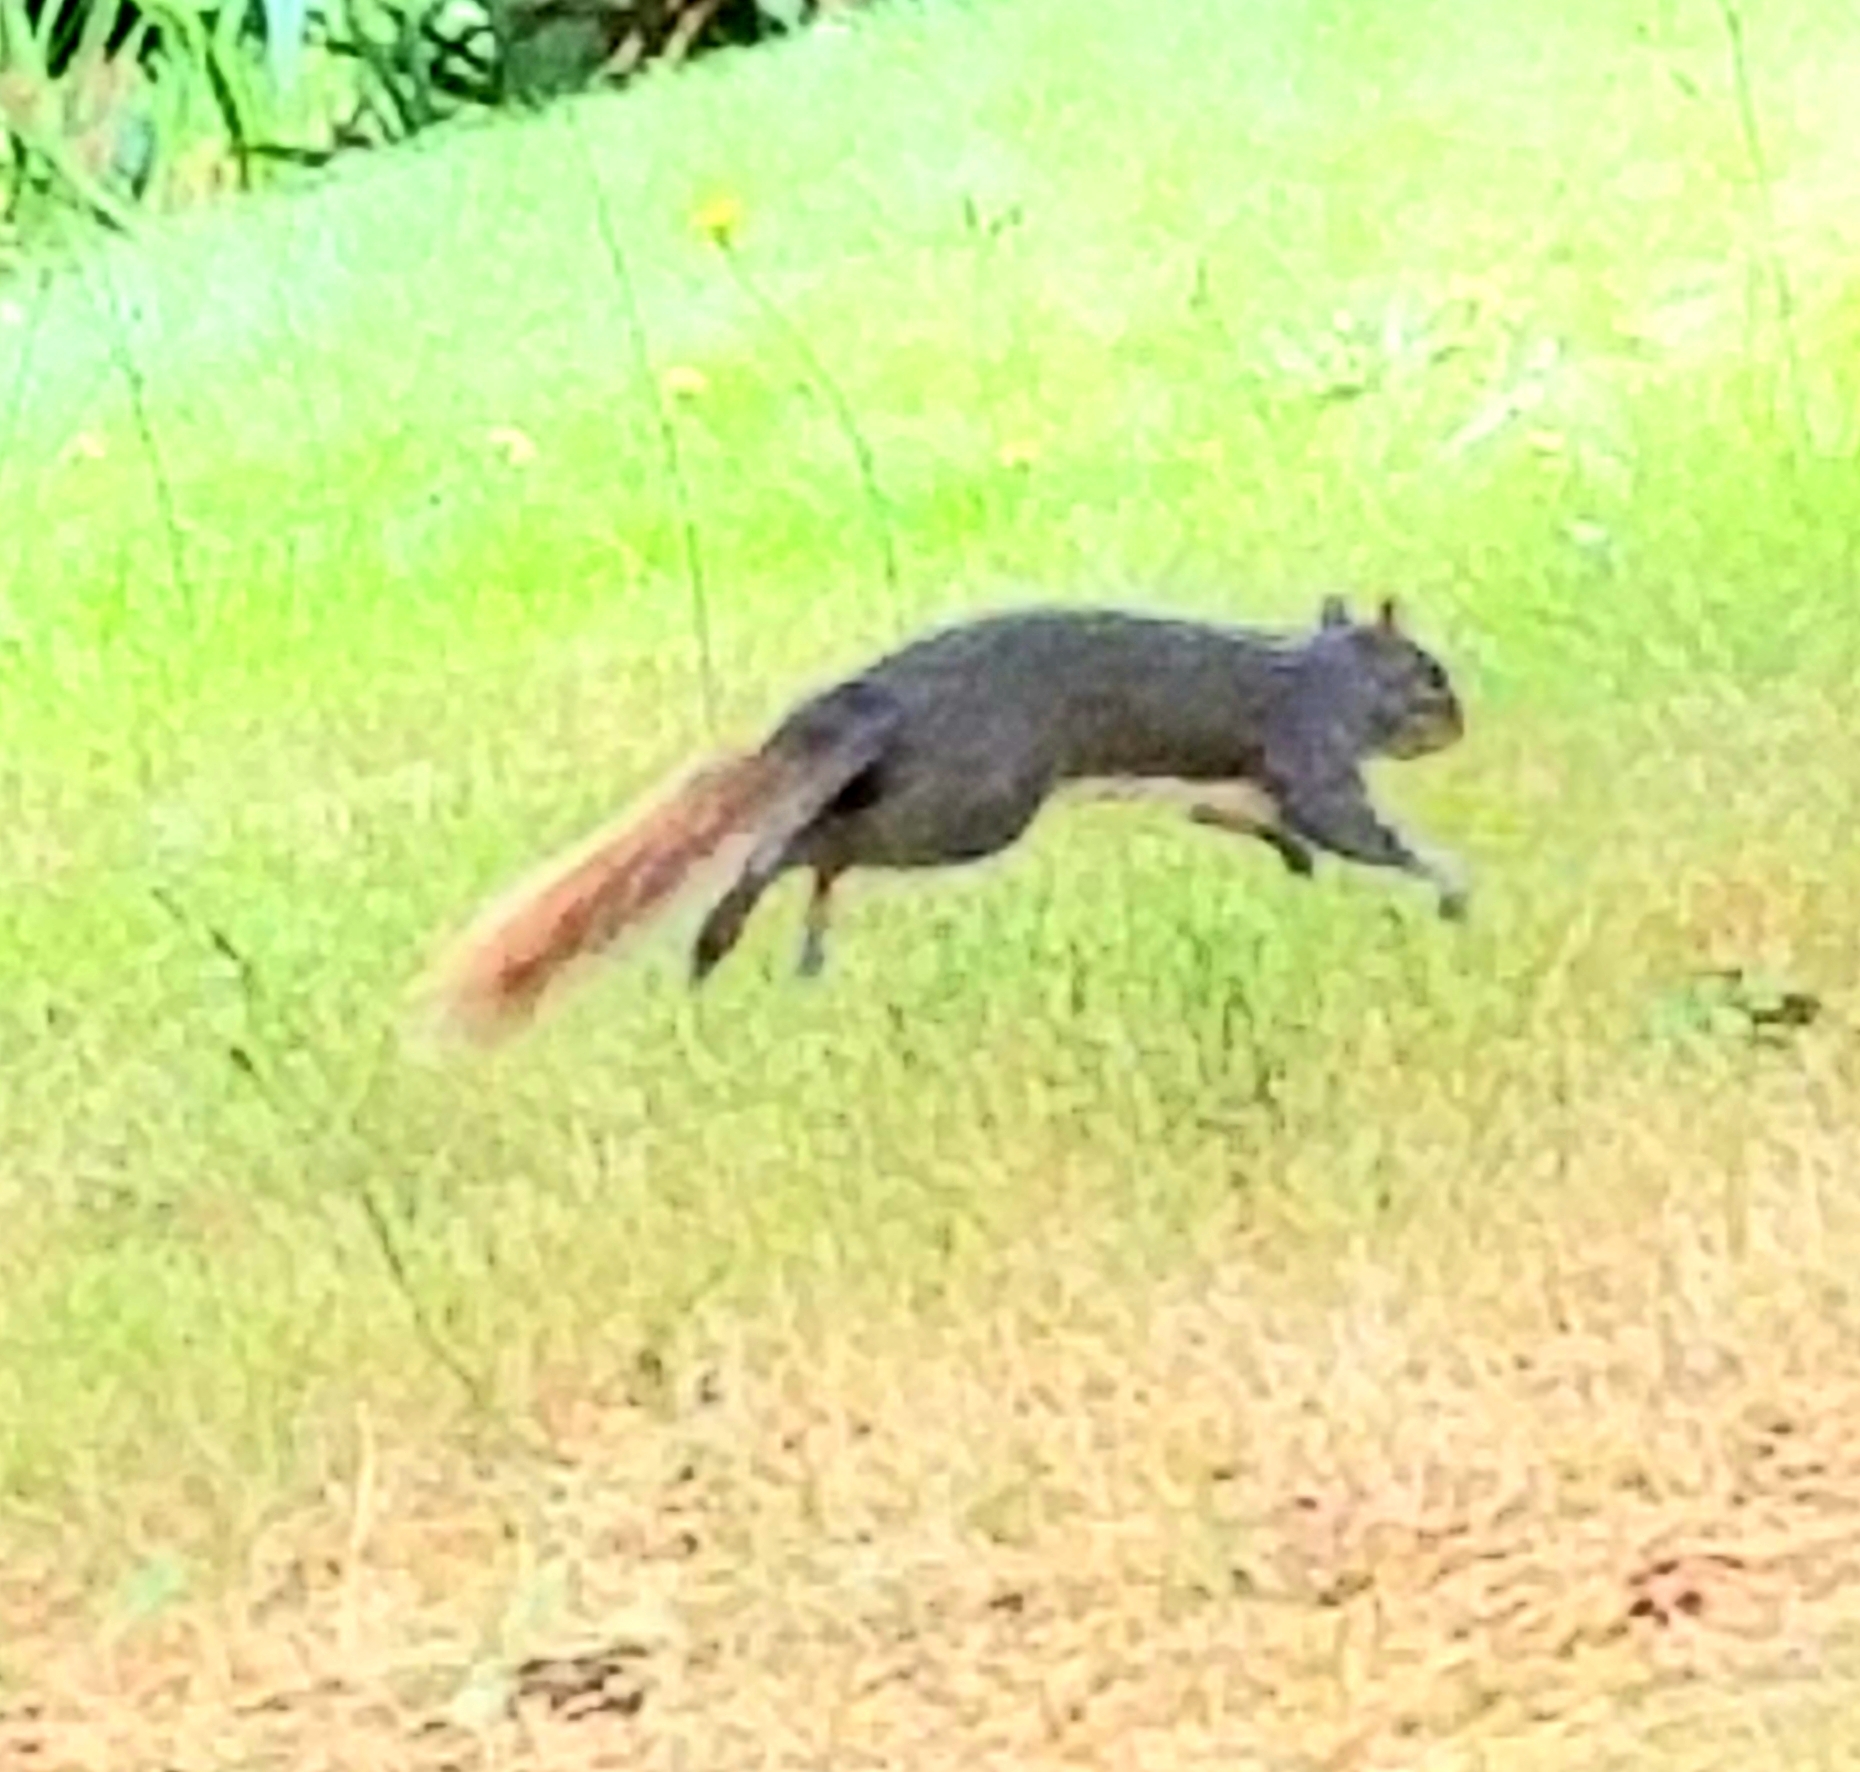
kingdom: Animalia
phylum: Chordata
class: Mammalia
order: Rodentia
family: Sciuridae
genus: Sciurus
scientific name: Sciurus carolinensis
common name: Eastern gray squirrel
